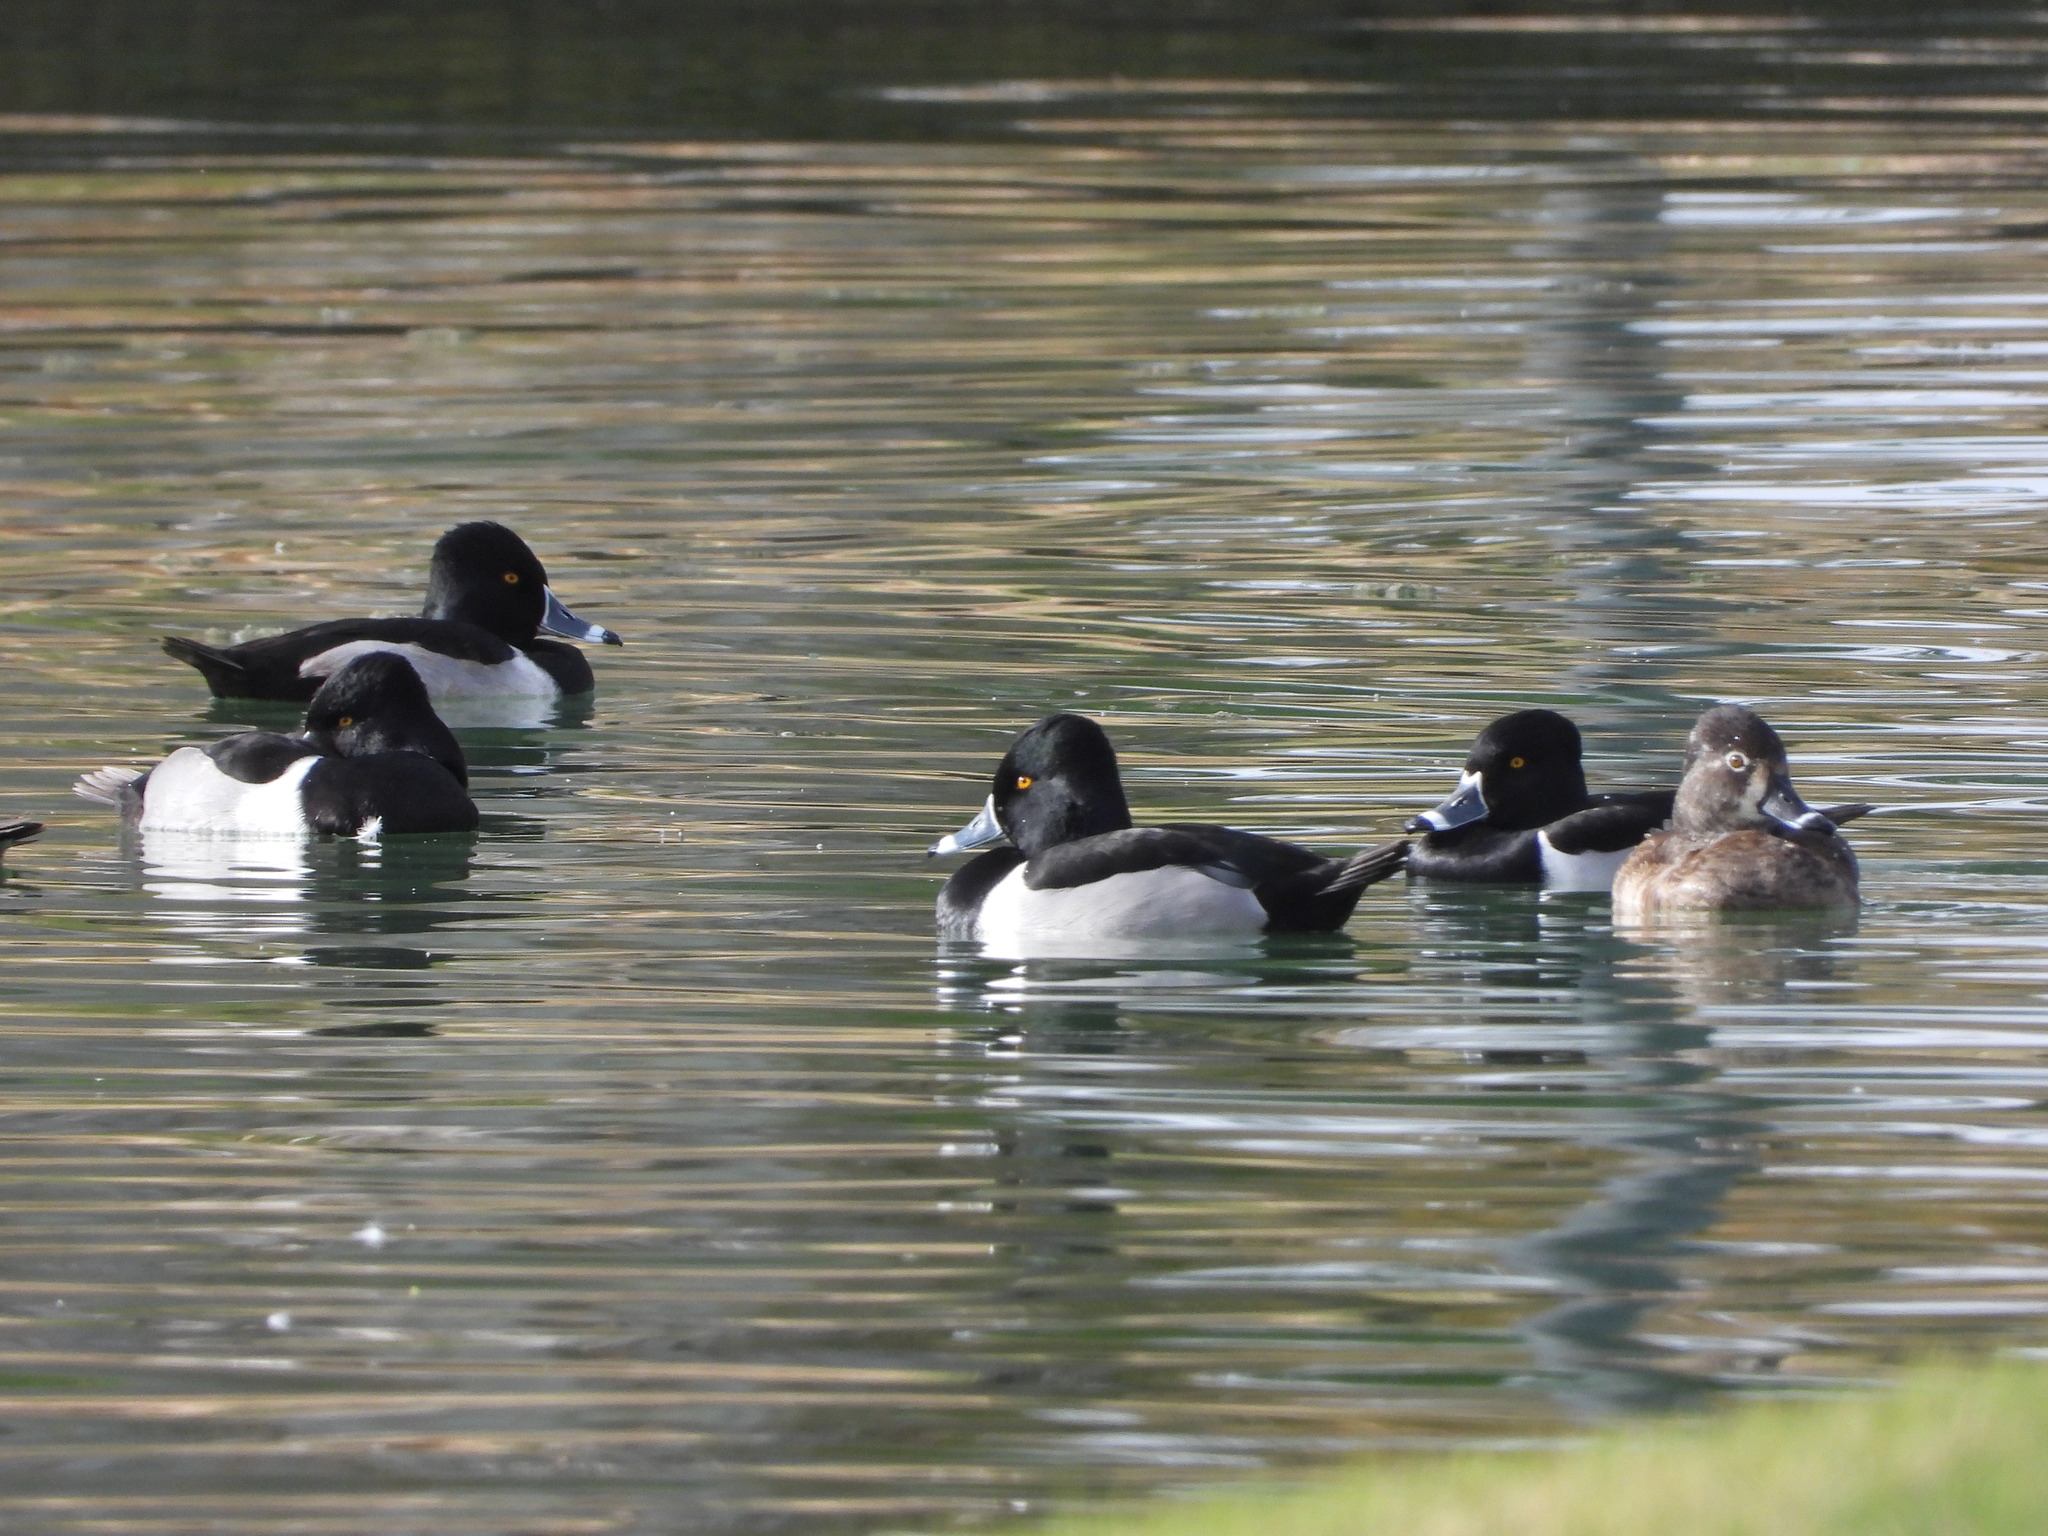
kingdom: Animalia
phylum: Chordata
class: Aves
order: Anseriformes
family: Anatidae
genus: Aythya
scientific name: Aythya collaris
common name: Ring-necked duck
